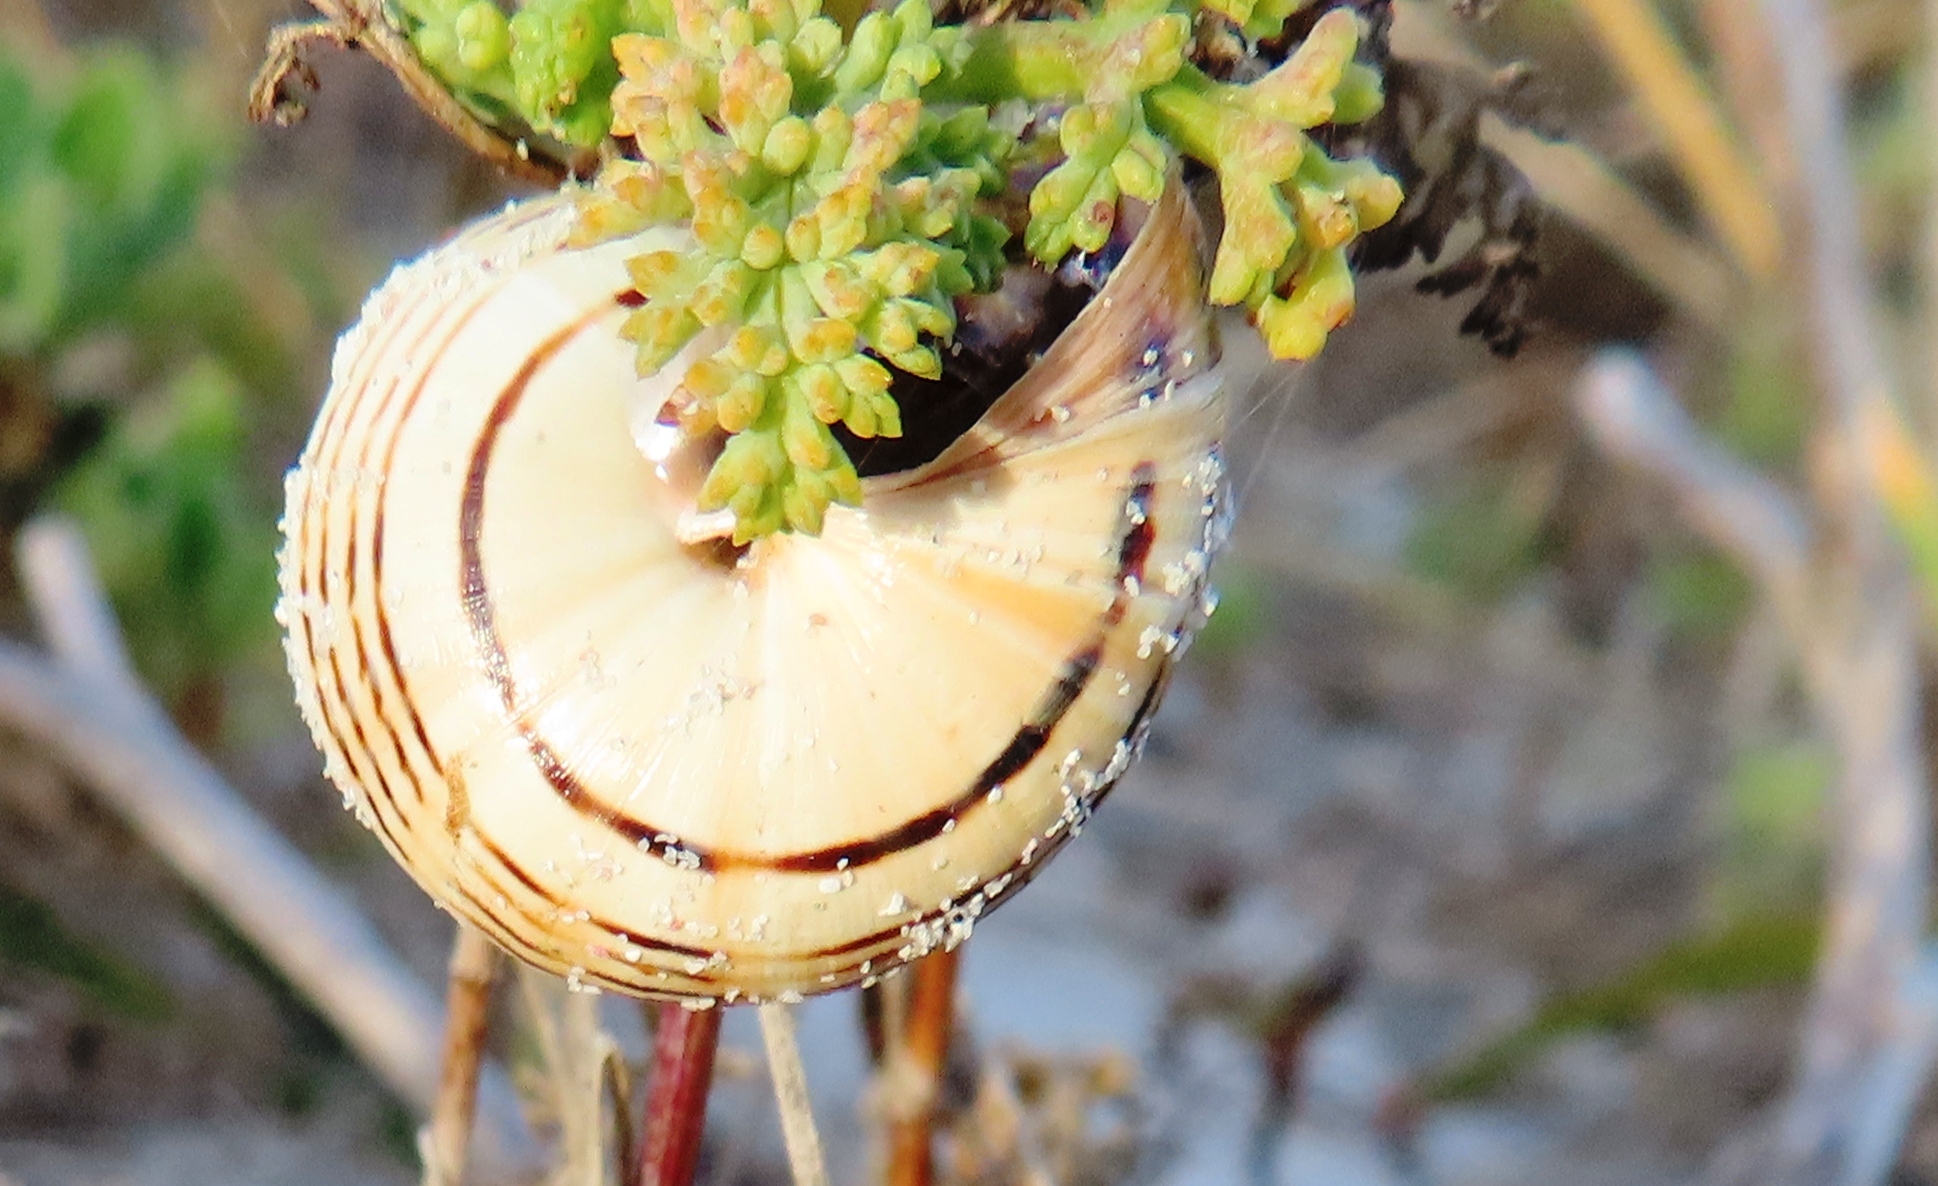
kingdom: Animalia
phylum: Mollusca
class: Gastropoda
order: Stylommatophora
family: Helicidae
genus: Theba
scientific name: Theba pisana
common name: White snail
